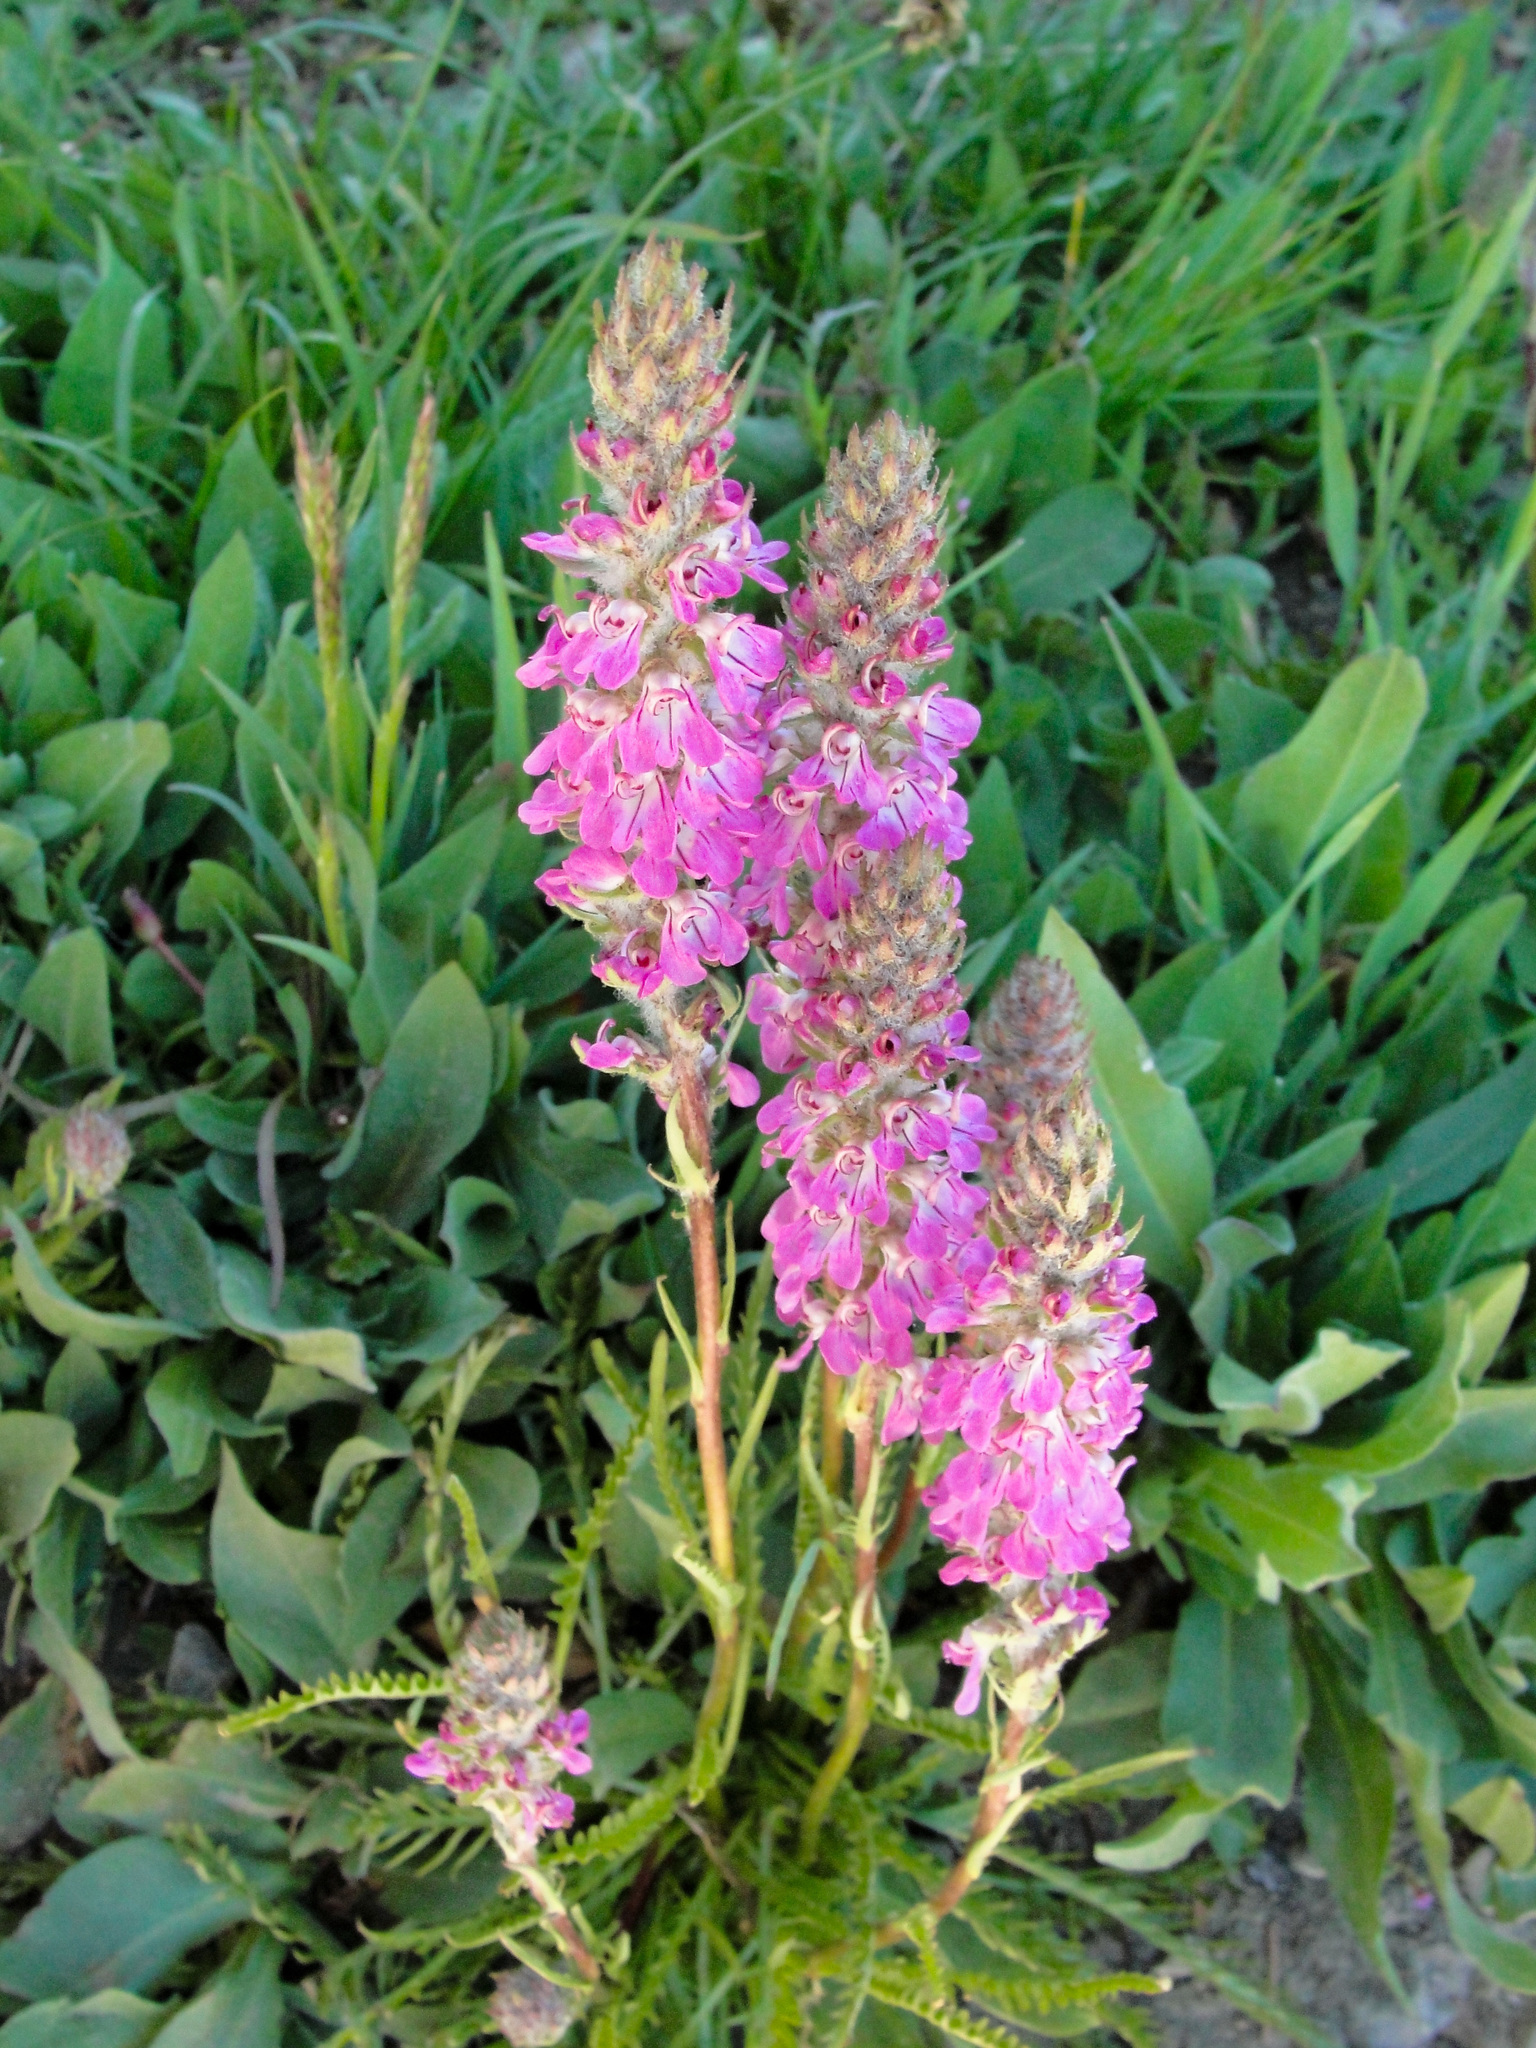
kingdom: Plantae
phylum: Tracheophyta
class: Magnoliopsida
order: Lamiales
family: Orobanchaceae
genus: Pedicularis
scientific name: Pedicularis attollens
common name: Slender pedicularis
